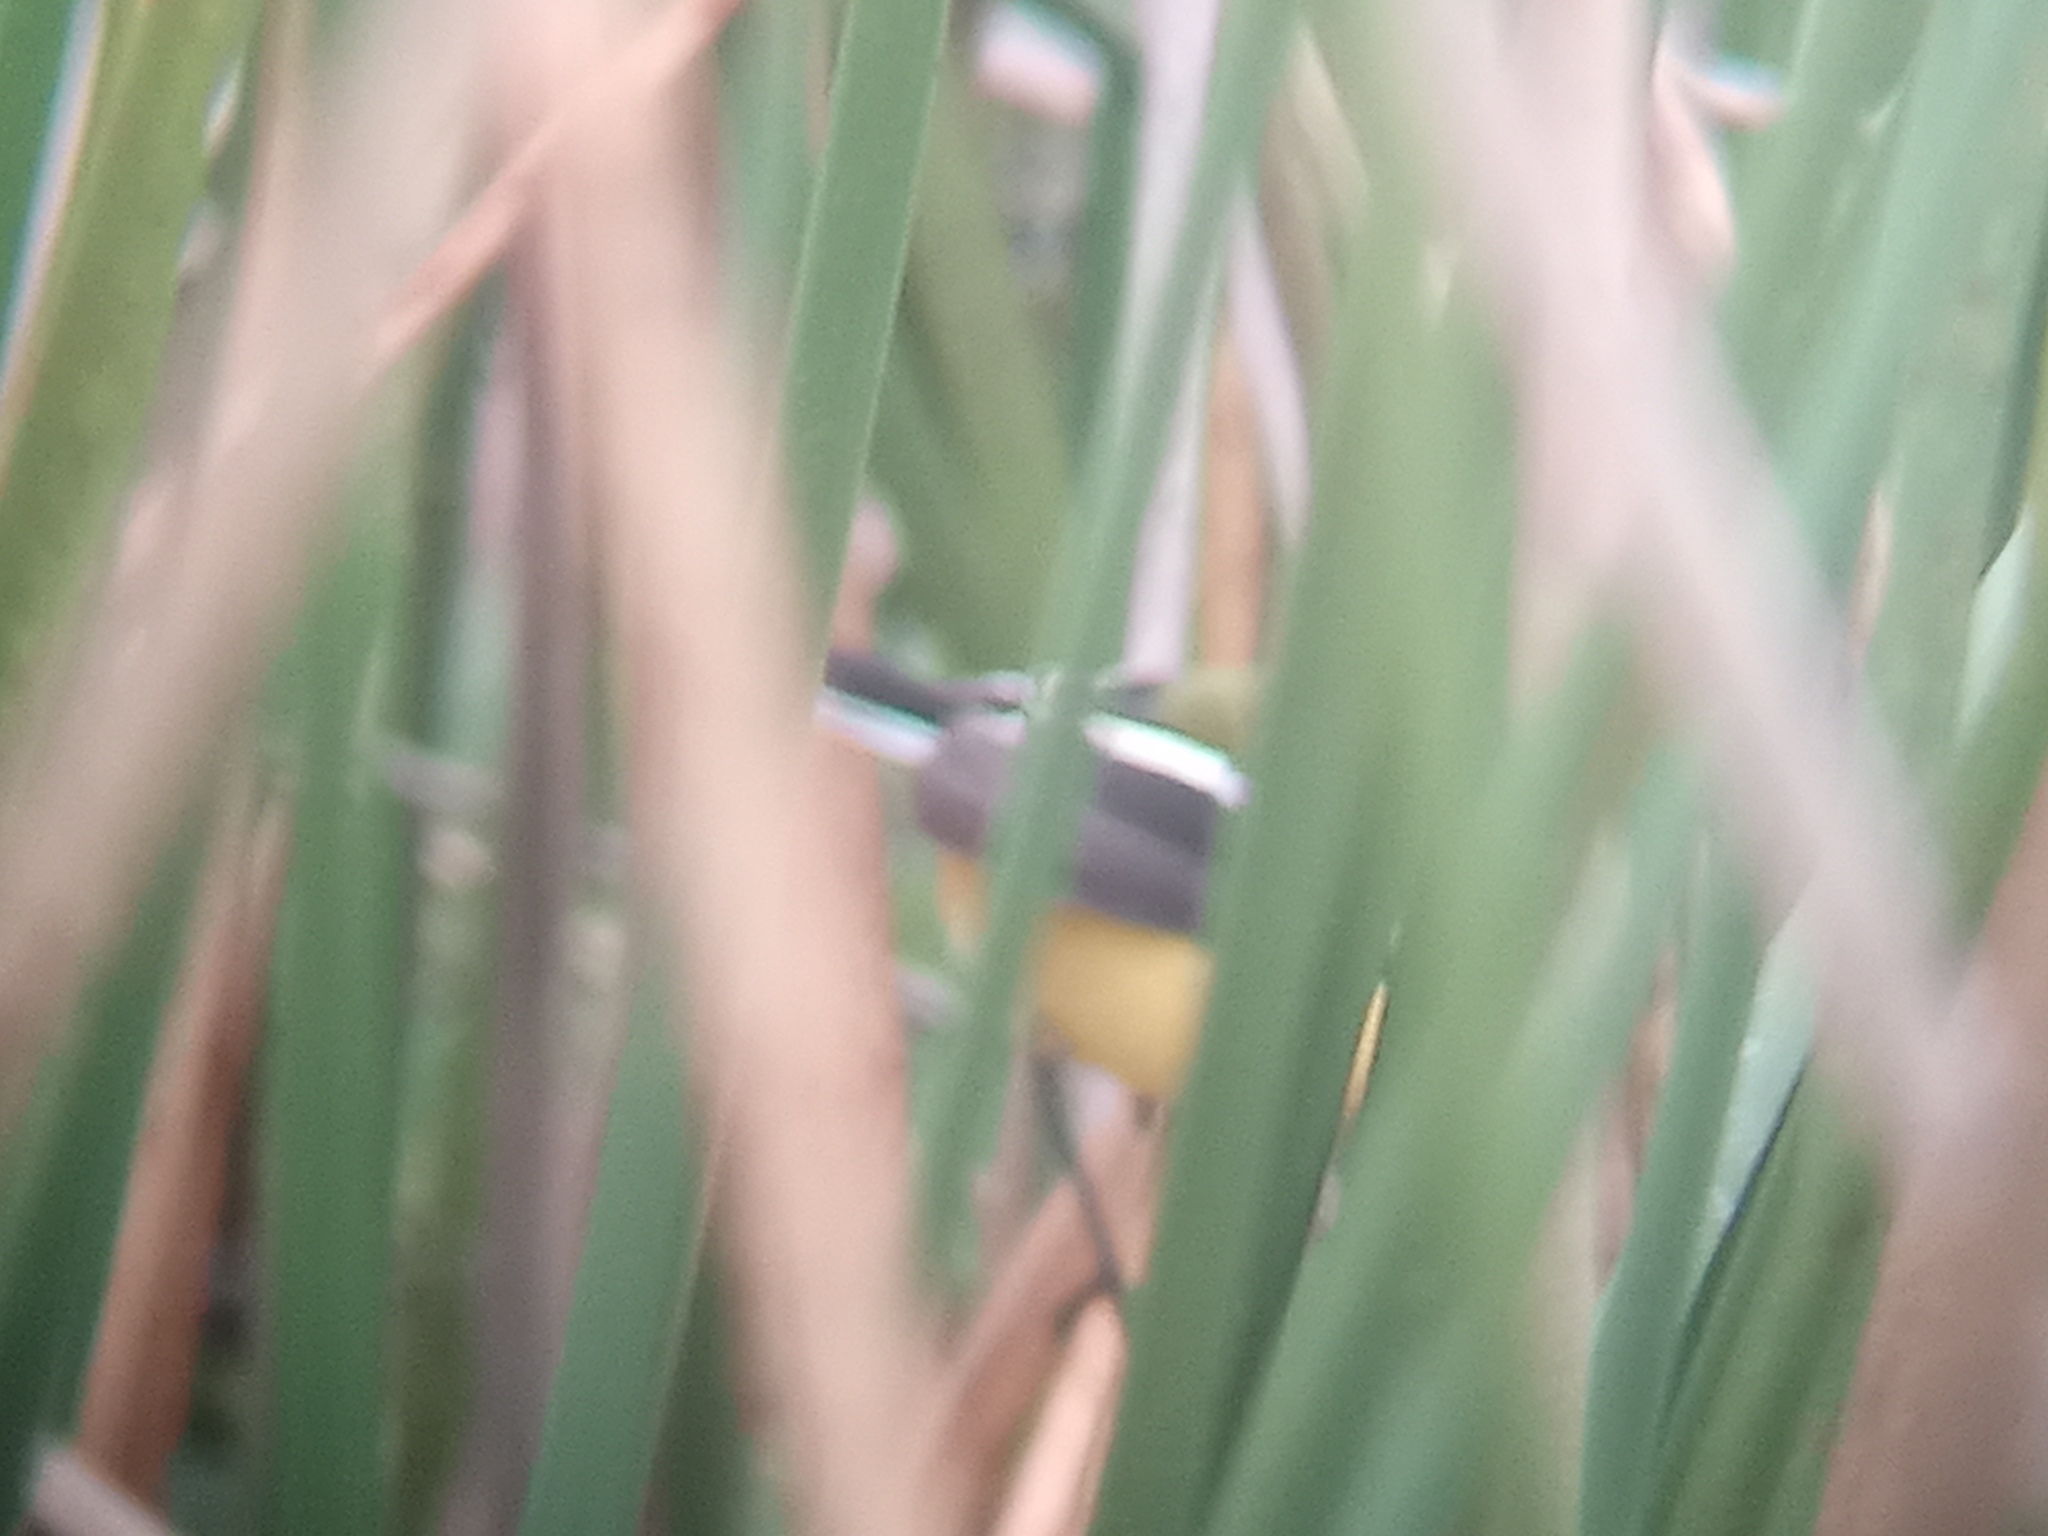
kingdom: Animalia
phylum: Chordata
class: Aves
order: Passeriformes
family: Tyrannidae
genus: Tachuris
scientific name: Tachuris rubrigastra
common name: Many-colored rush tyrant
